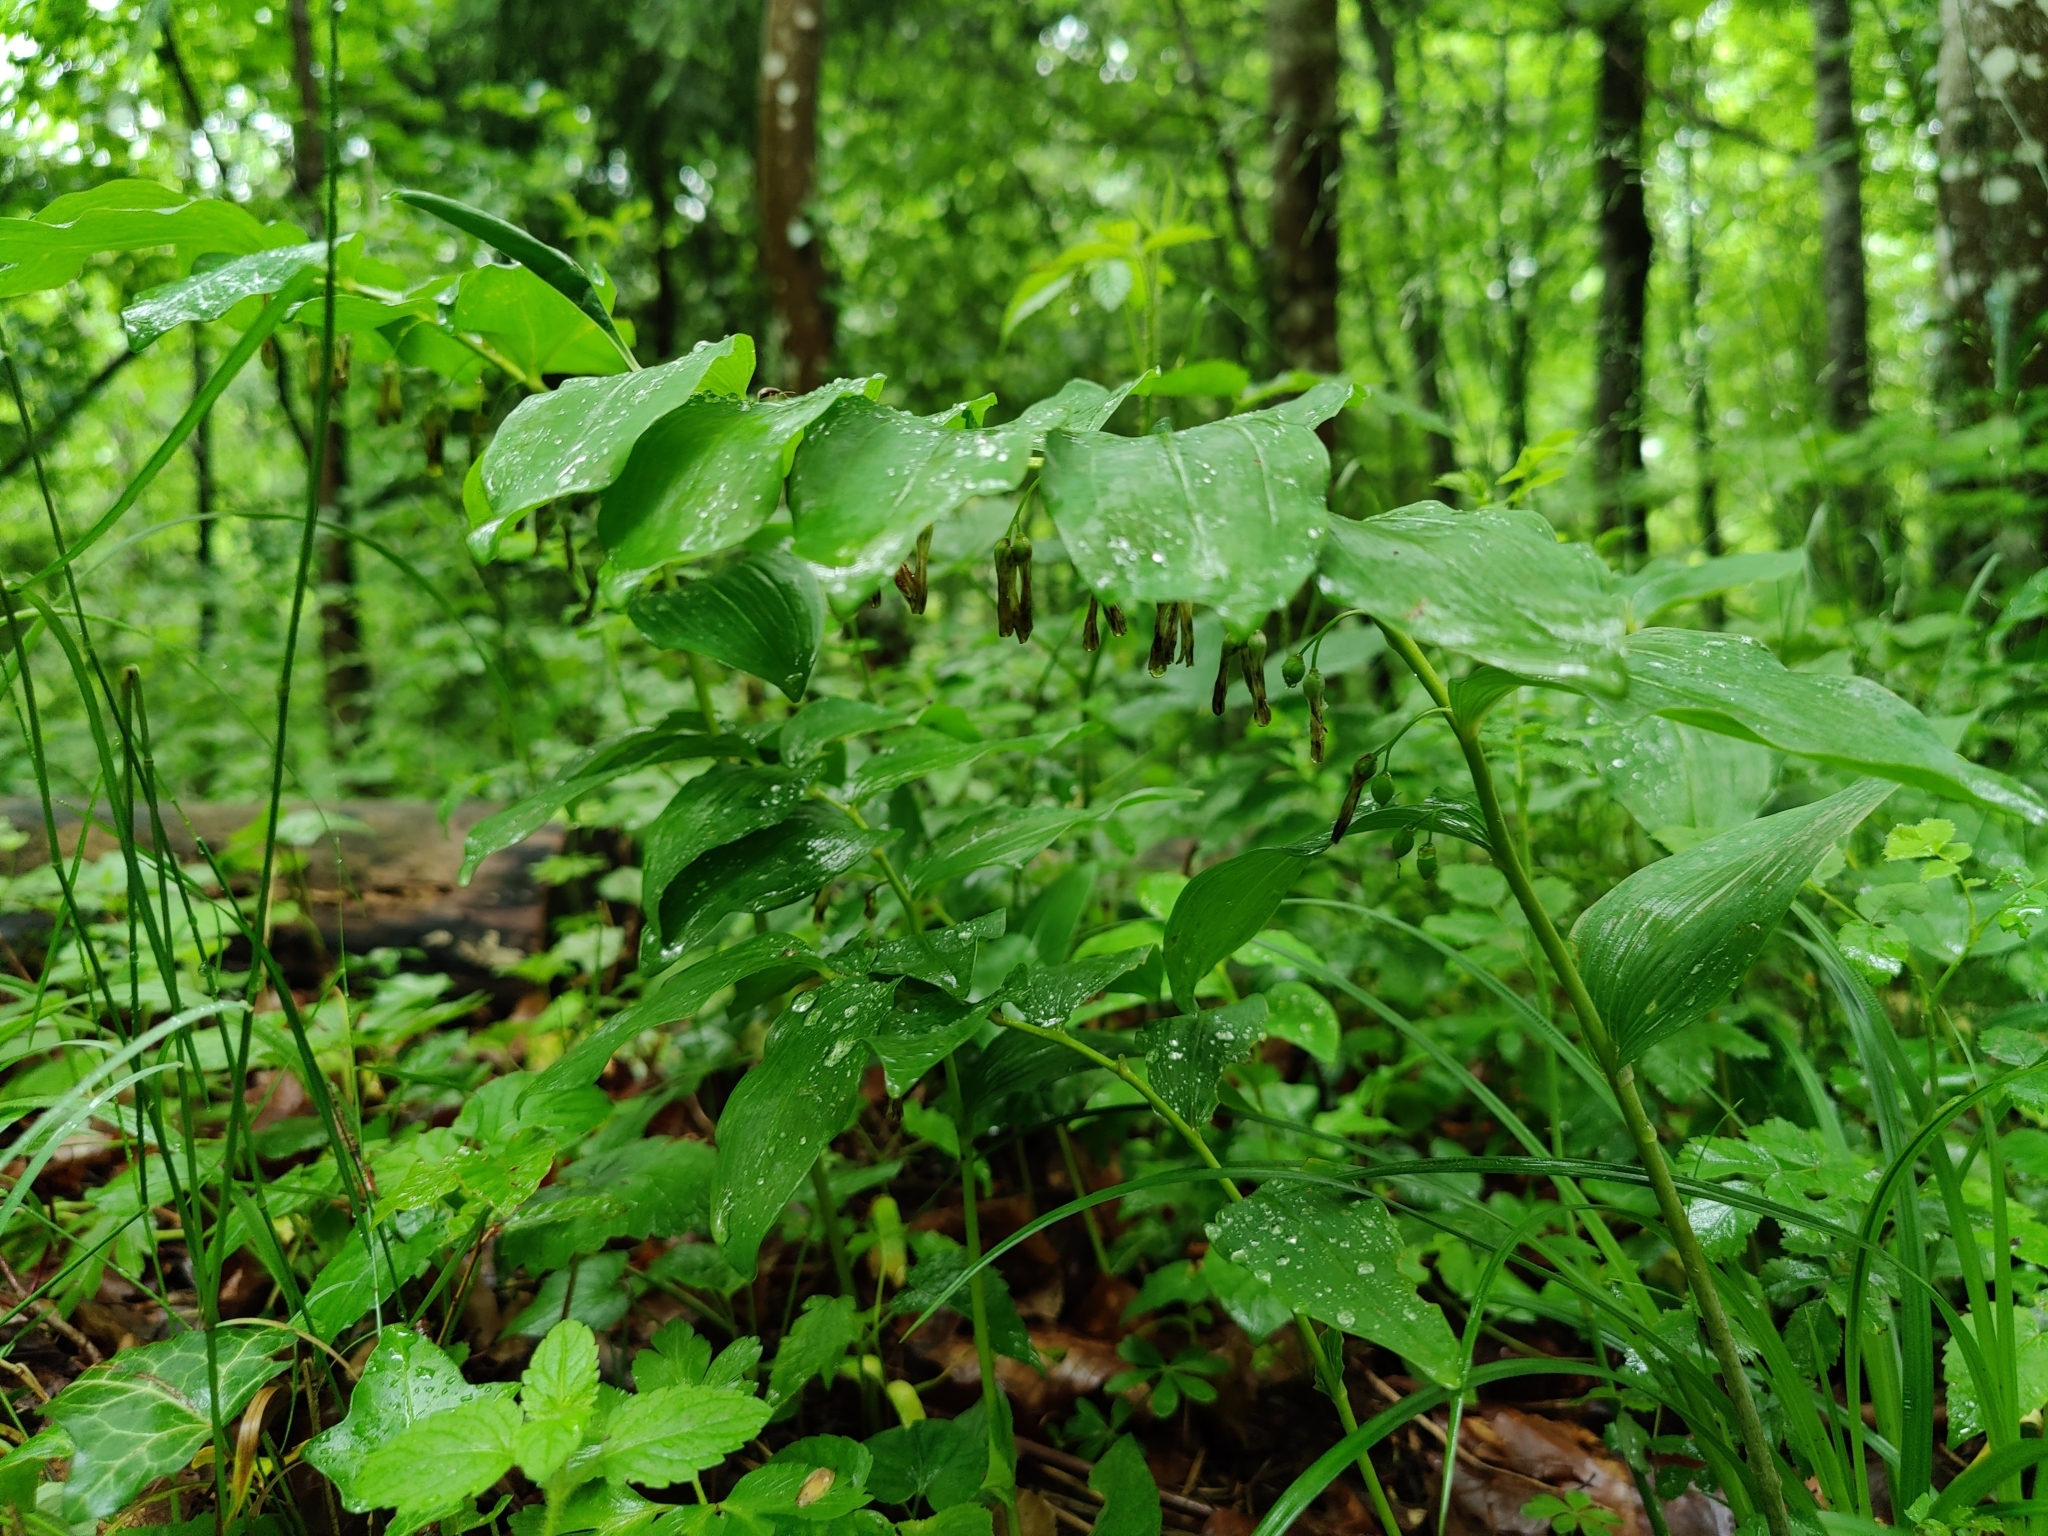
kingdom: Plantae
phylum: Tracheophyta
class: Liliopsida
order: Asparagales
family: Asparagaceae
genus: Polygonatum
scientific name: Polygonatum multiflorum
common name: Solomon's-seal
